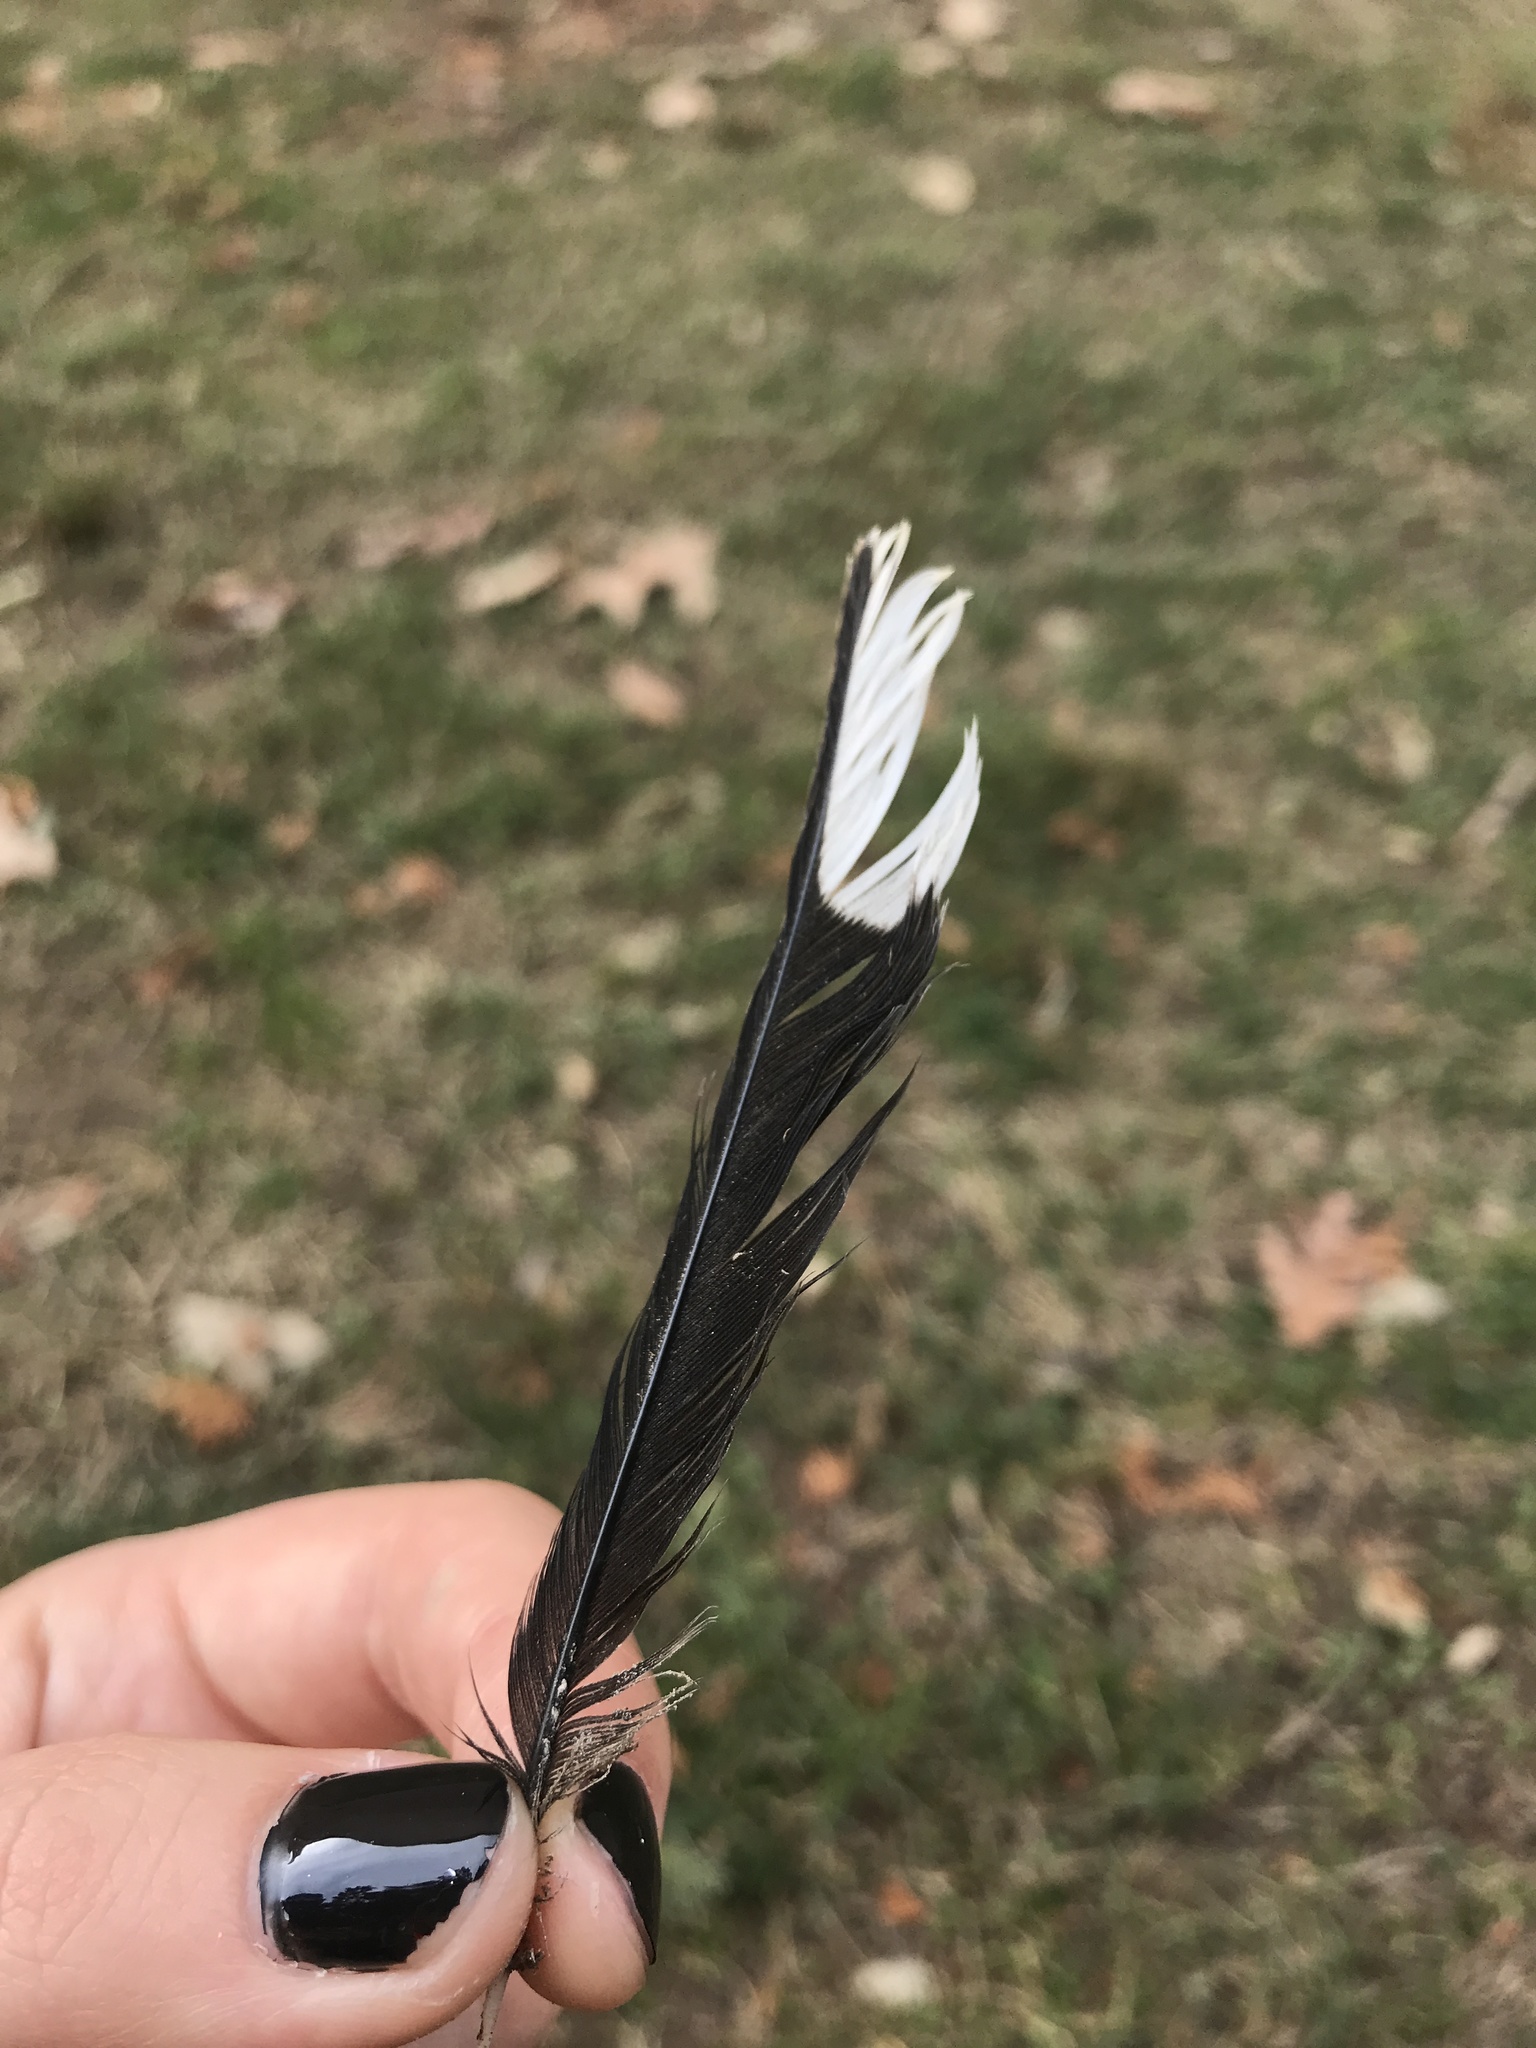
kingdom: Animalia
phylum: Chordata
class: Aves
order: Passeriformes
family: Passerellidae
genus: Pipilo
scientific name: Pipilo erythrophthalmus
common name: Eastern towhee
